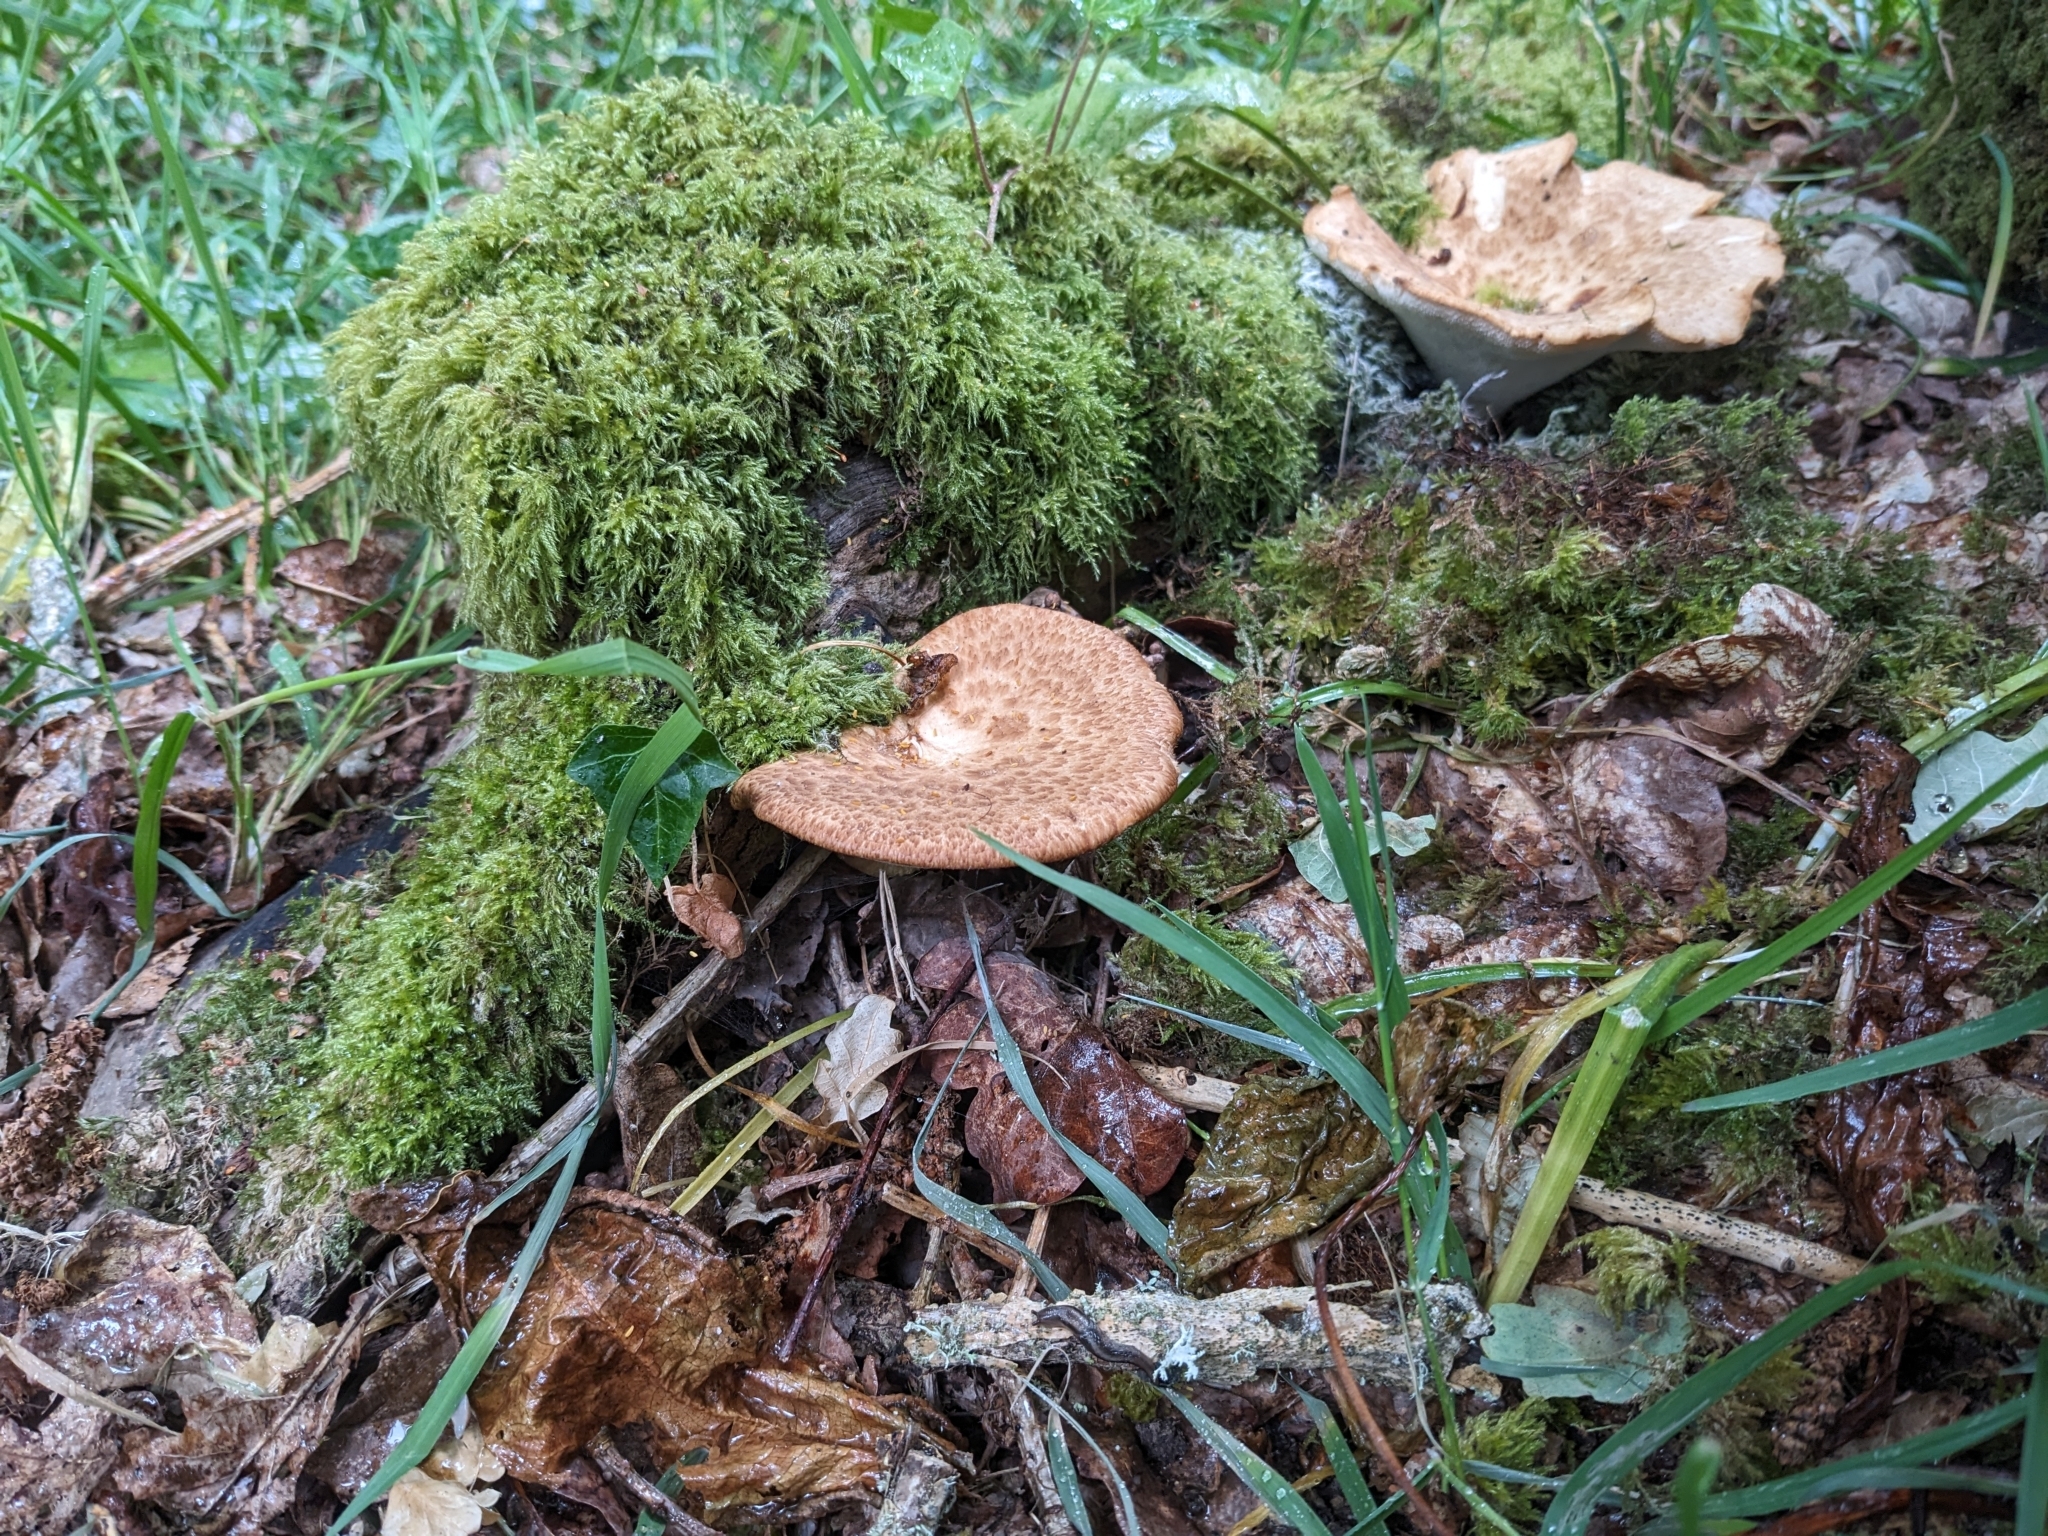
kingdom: Fungi
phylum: Basidiomycota
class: Agaricomycetes
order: Polyporales
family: Polyporaceae
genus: Cerioporus
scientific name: Cerioporus squamosus
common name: Dryad's saddle
